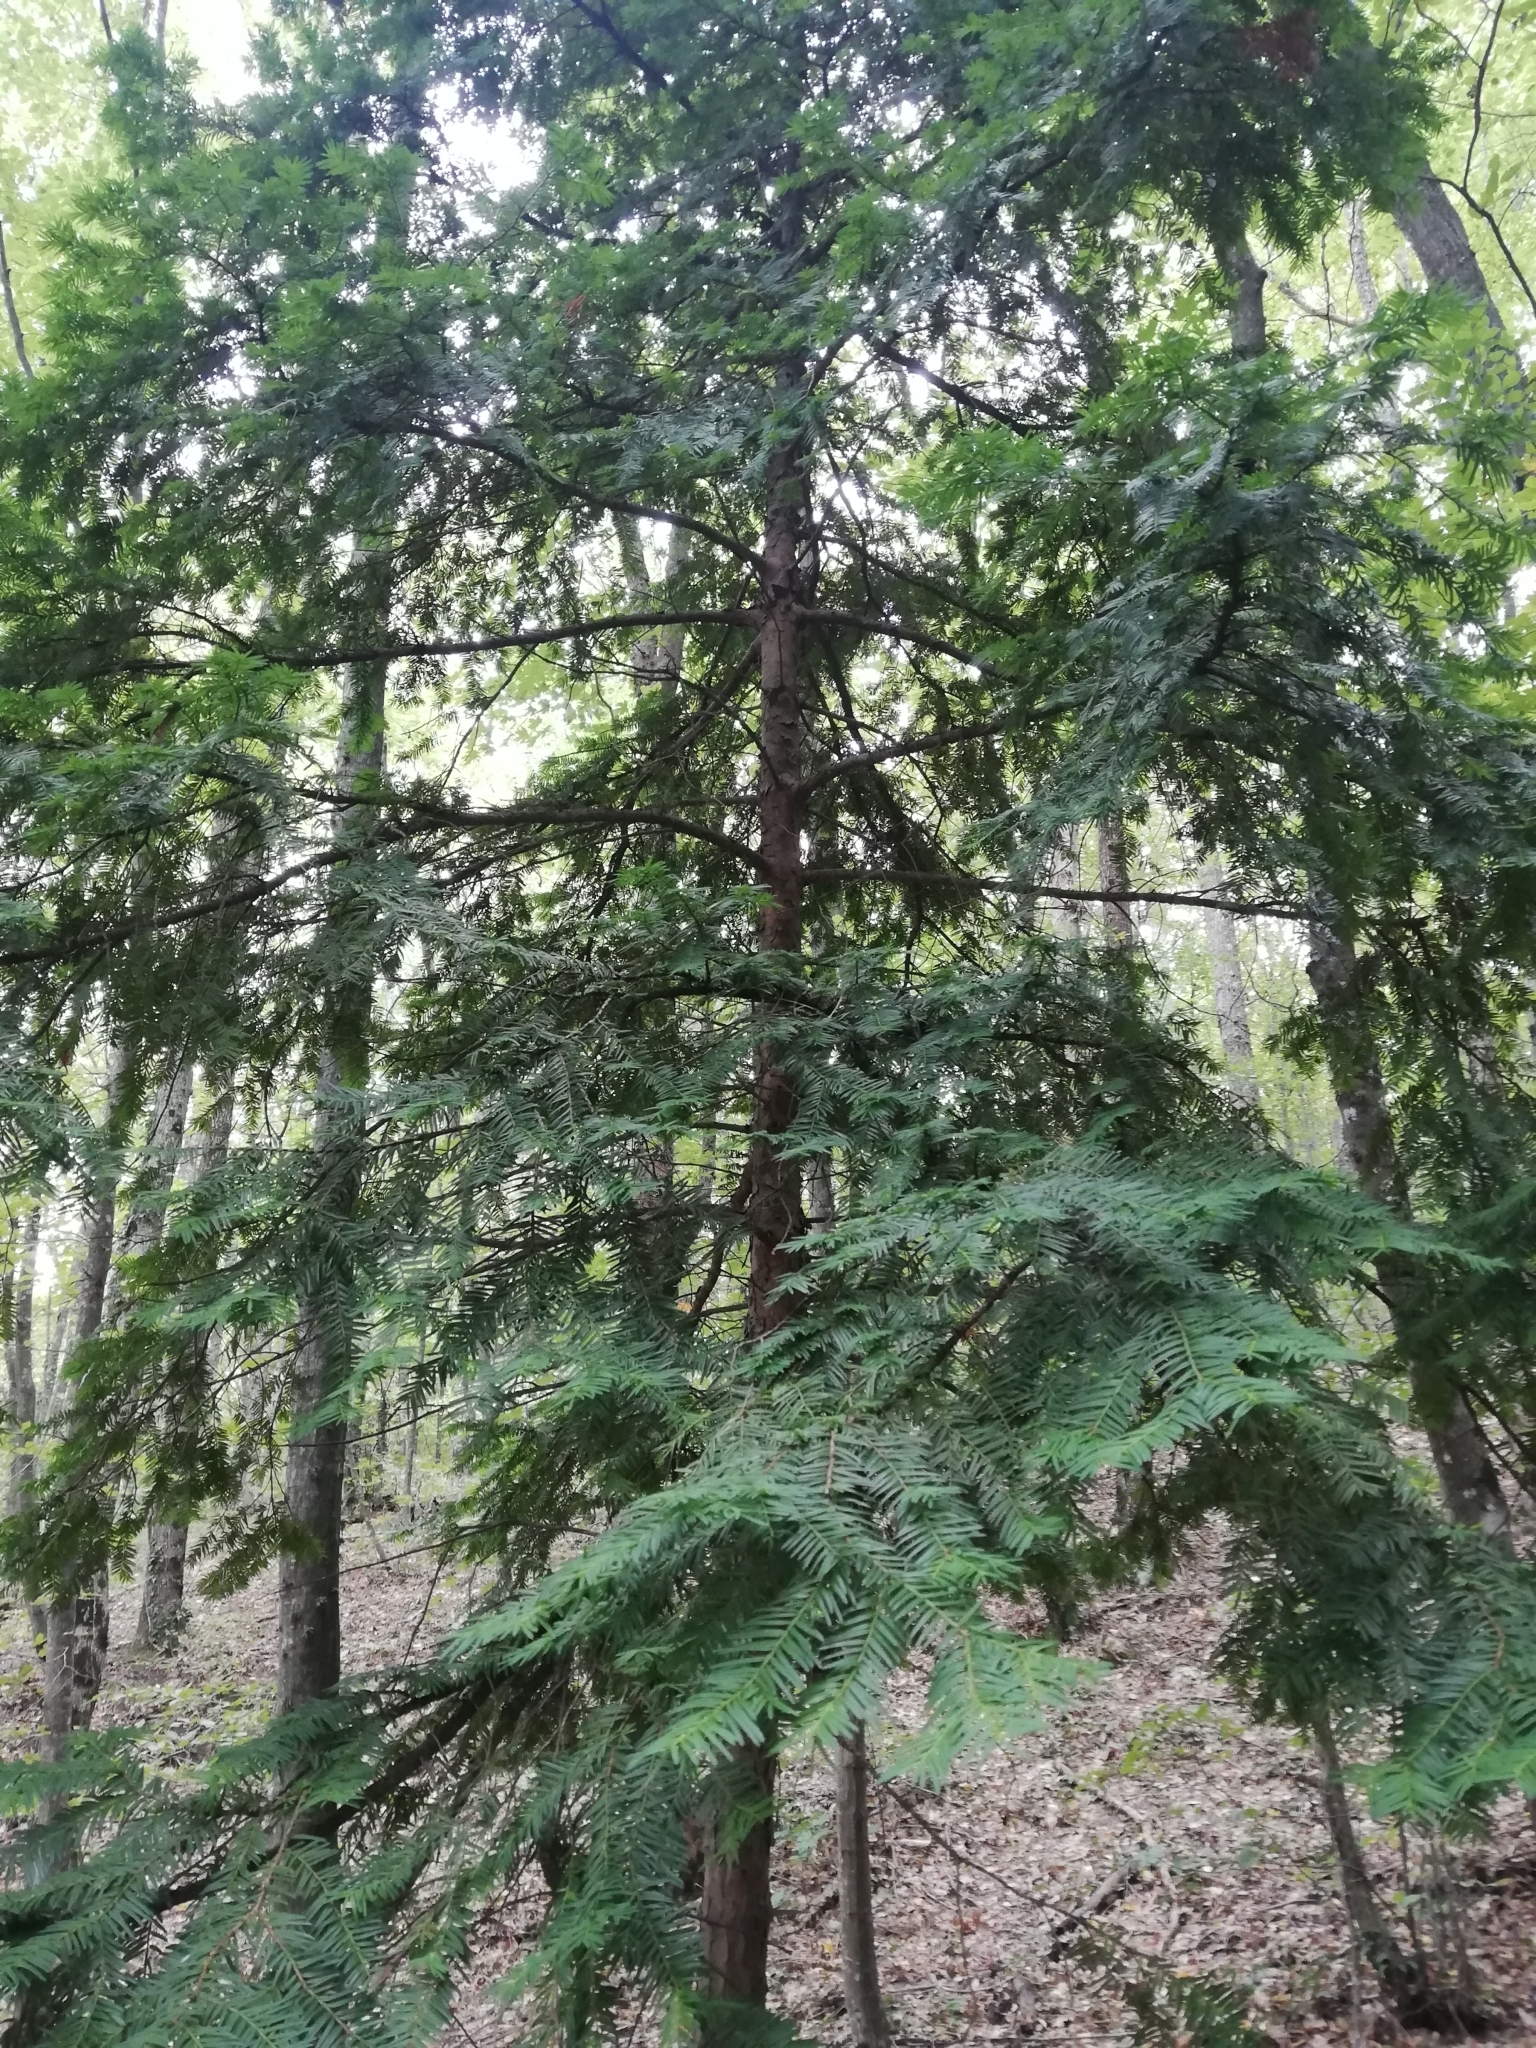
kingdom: Plantae
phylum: Tracheophyta
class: Pinopsida
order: Pinales
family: Taxaceae
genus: Taxus
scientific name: Taxus baccata
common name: Yew
